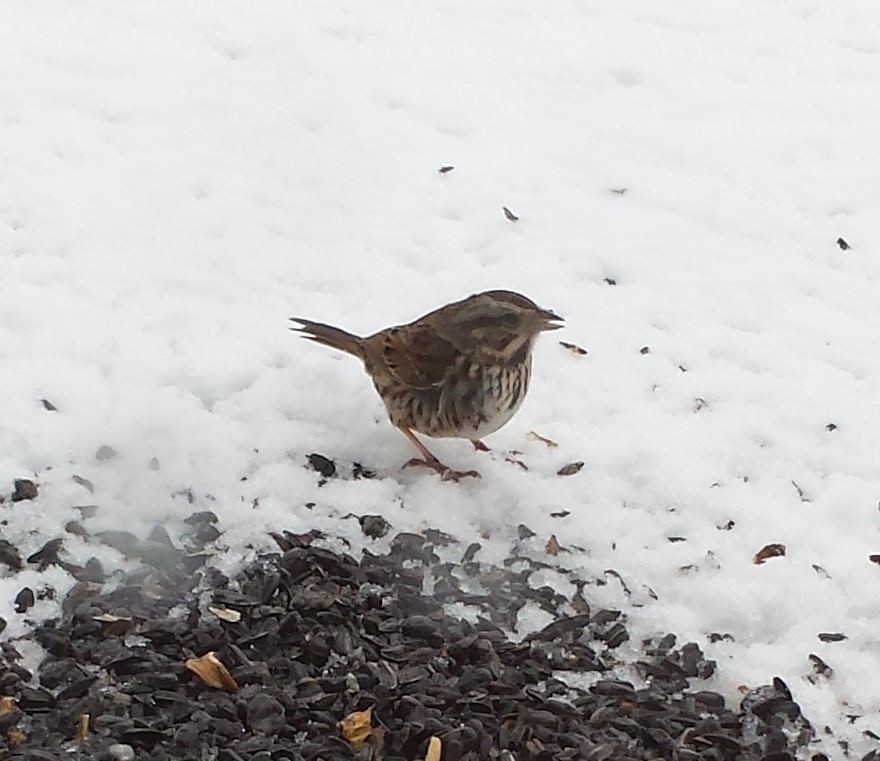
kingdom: Animalia
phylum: Chordata
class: Aves
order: Passeriformes
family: Passerellidae
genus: Melospiza
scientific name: Melospiza melodia
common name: Song sparrow
